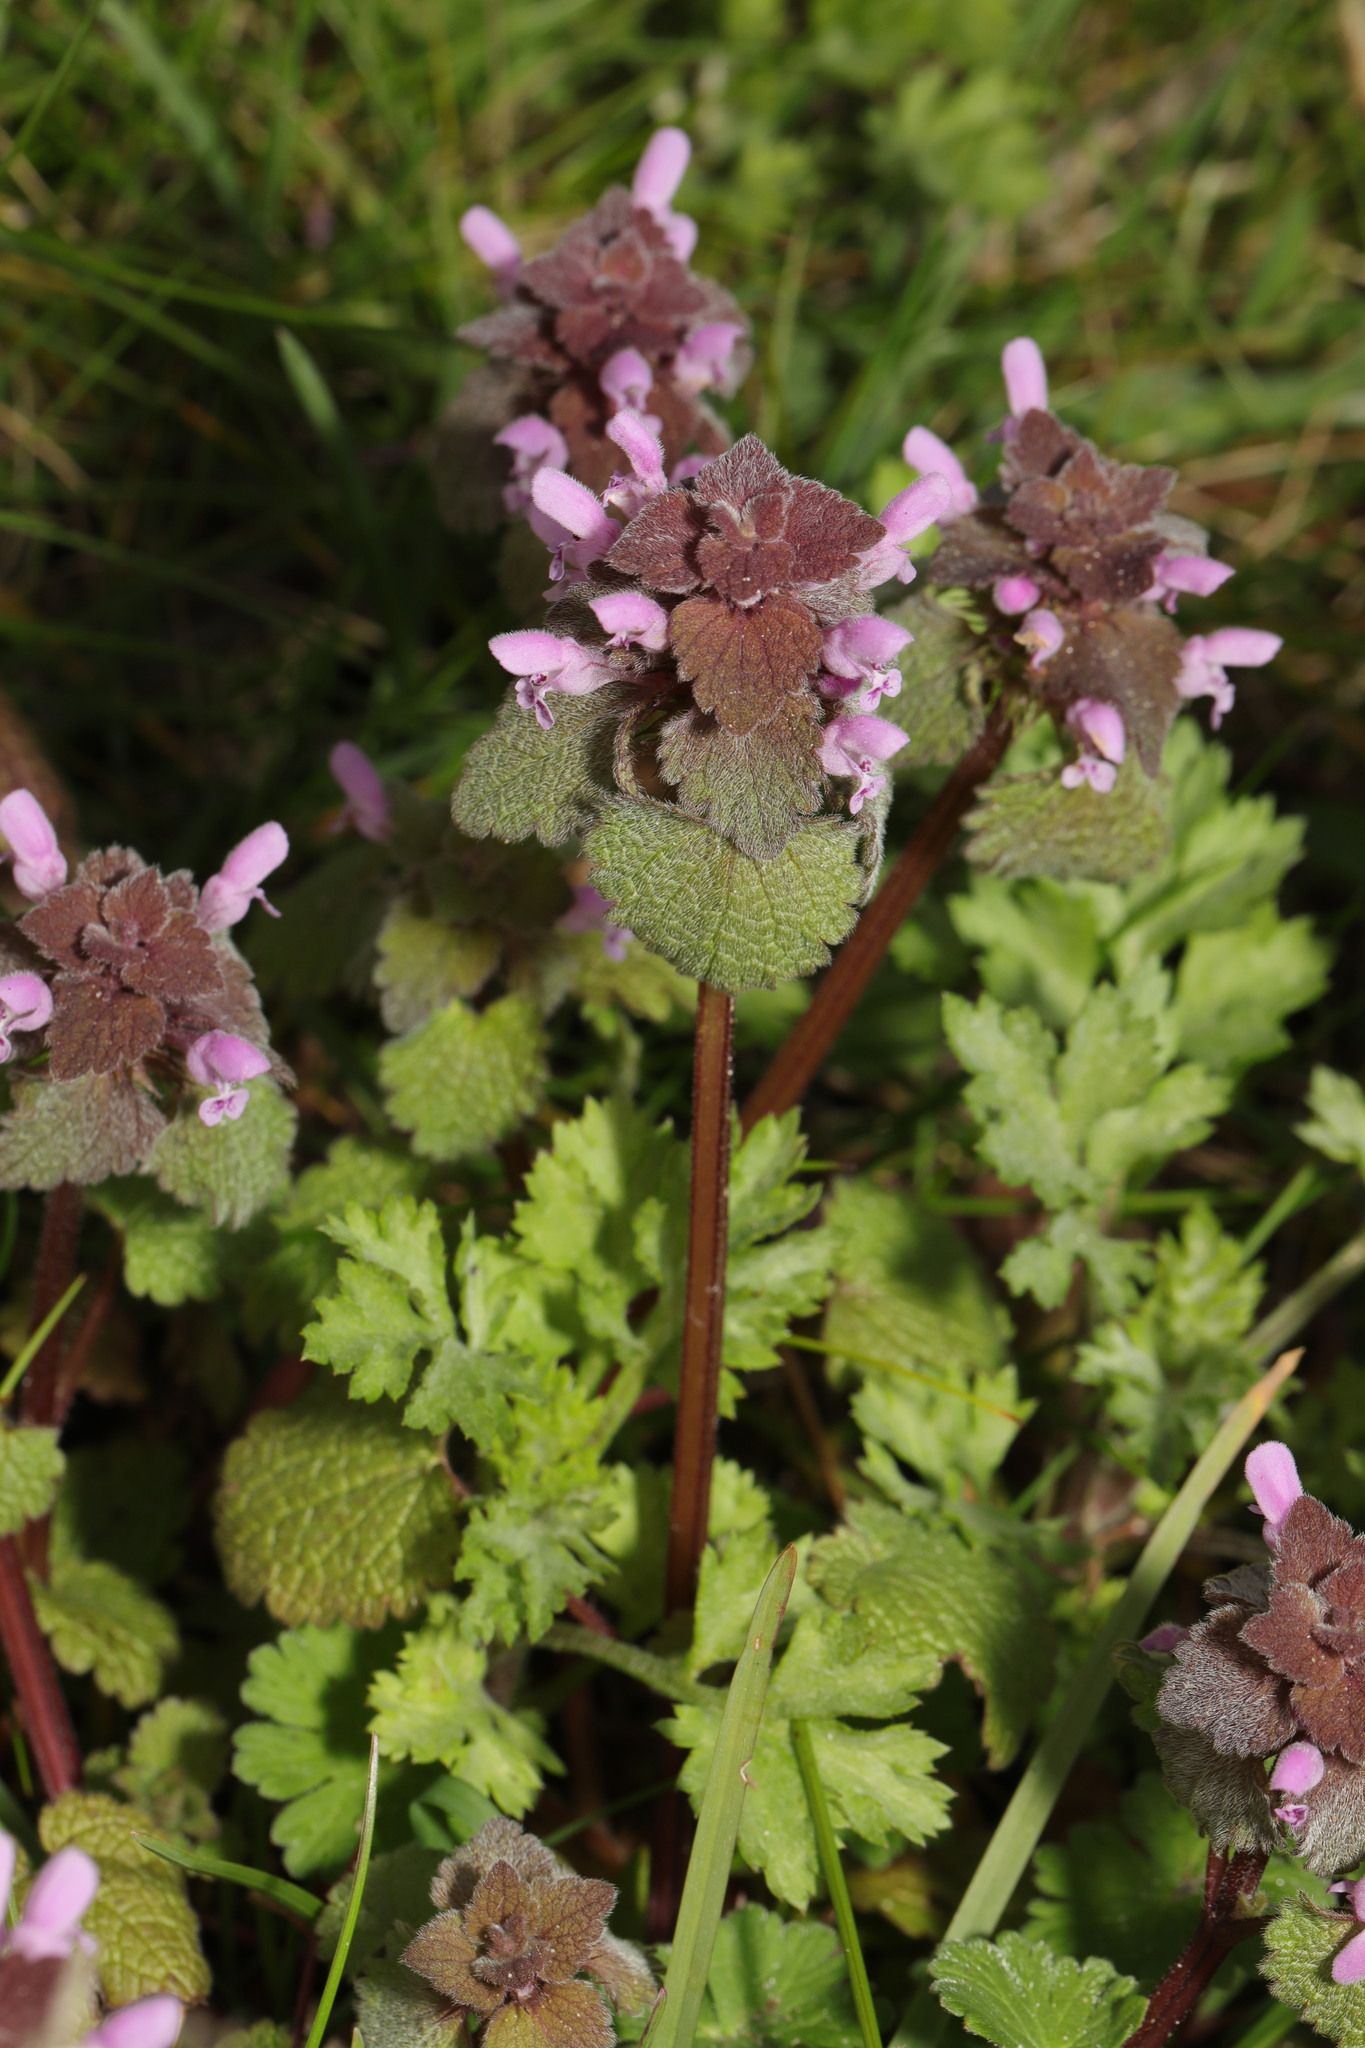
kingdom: Plantae
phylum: Tracheophyta
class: Magnoliopsida
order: Lamiales
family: Lamiaceae
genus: Lamium
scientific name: Lamium purpureum
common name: Red dead-nettle
